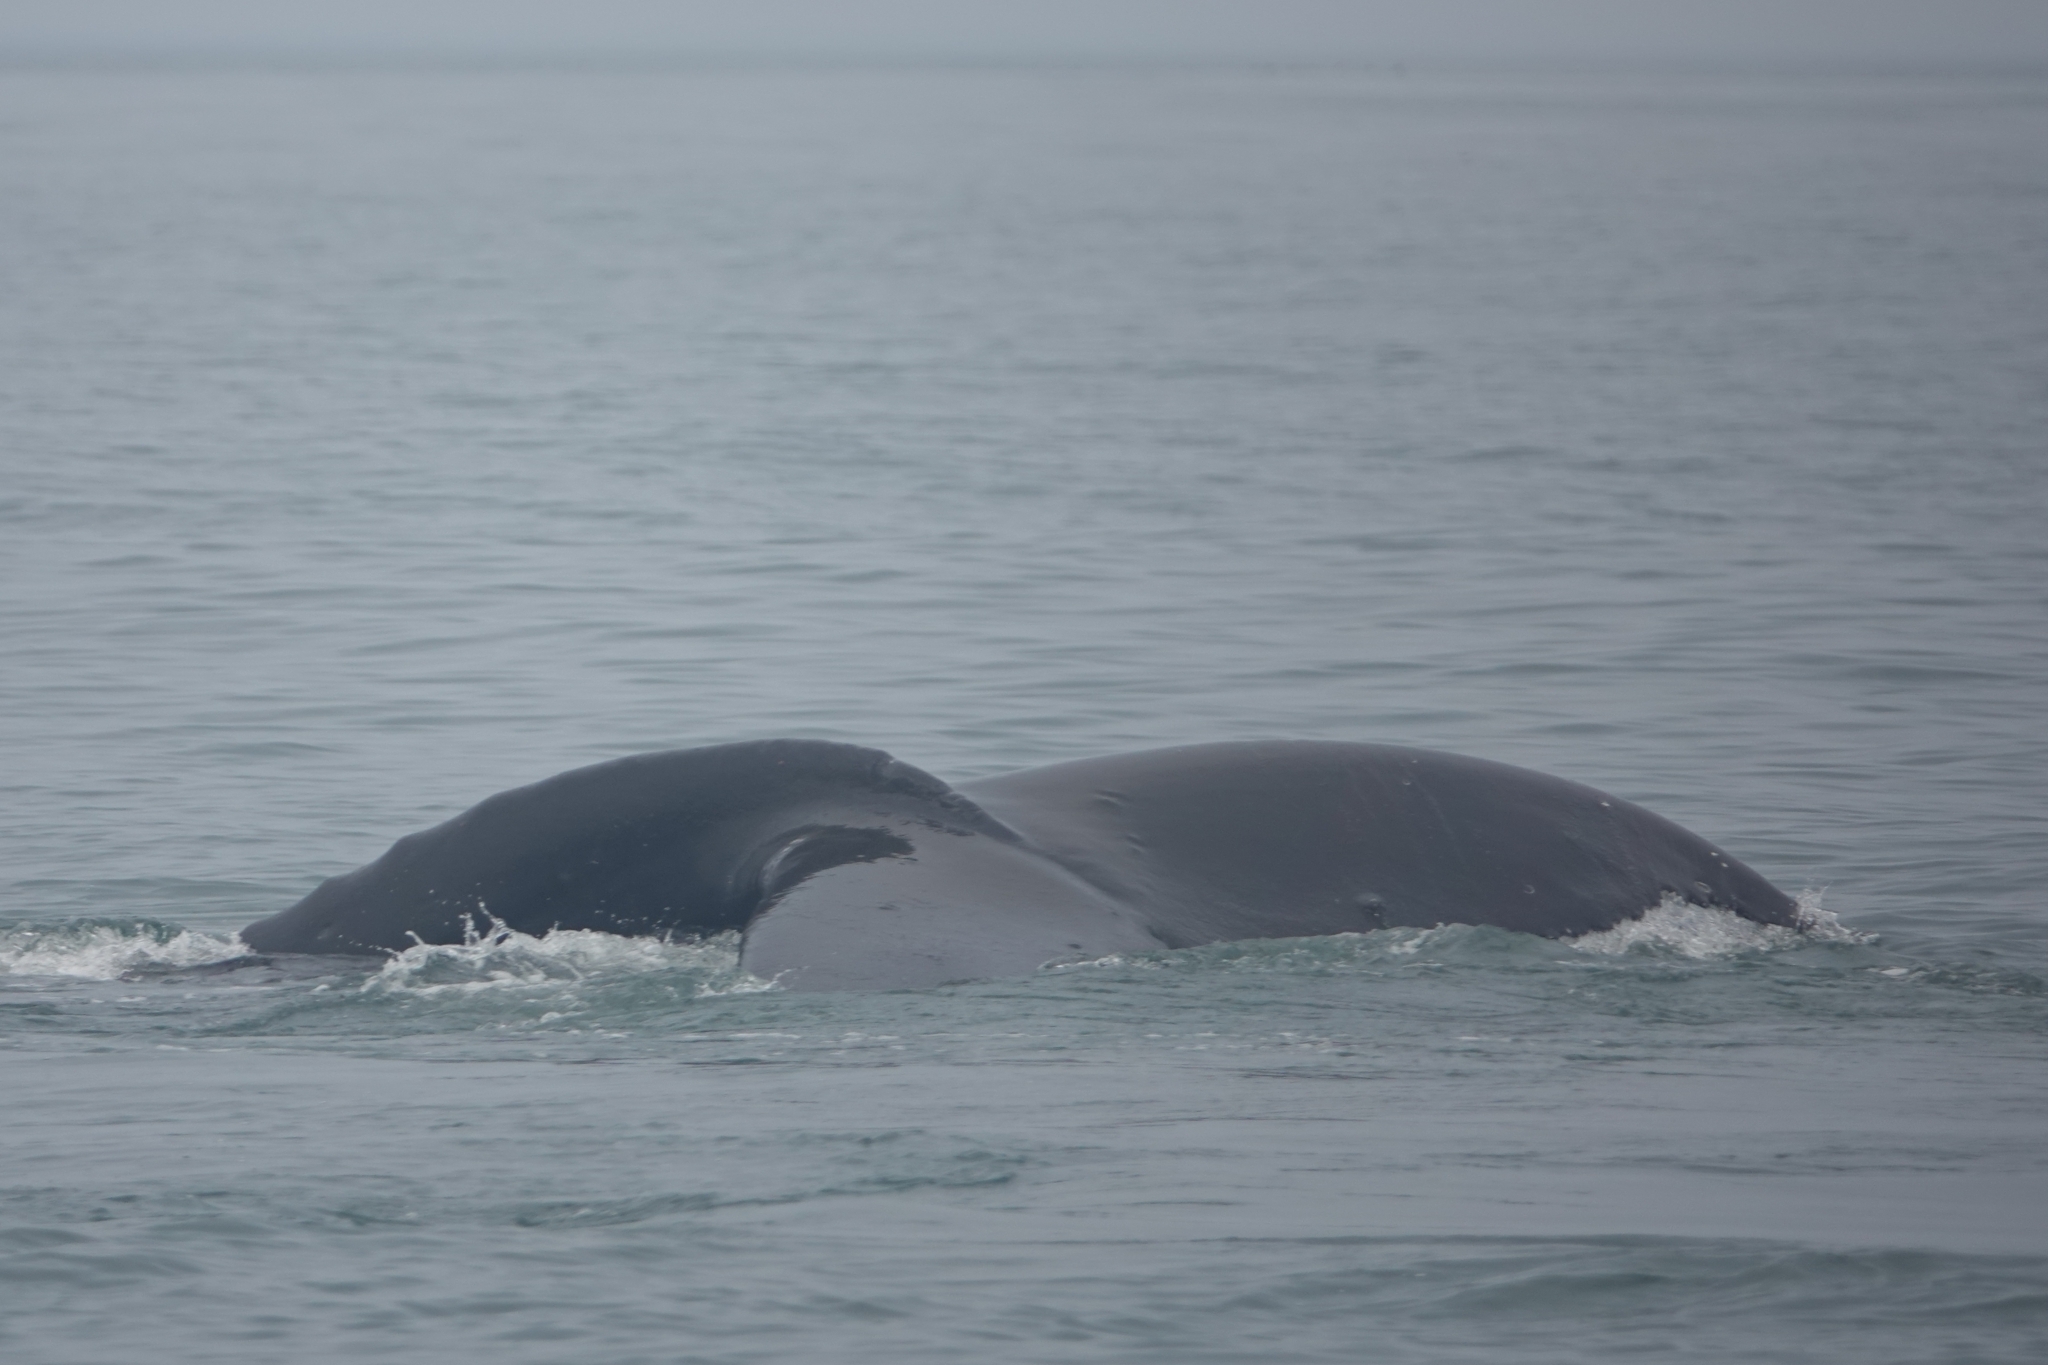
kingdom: Animalia
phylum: Chordata
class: Mammalia
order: Cetacea
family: Balaenopteridae
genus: Megaptera
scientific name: Megaptera novaeangliae
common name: Humpback whale
